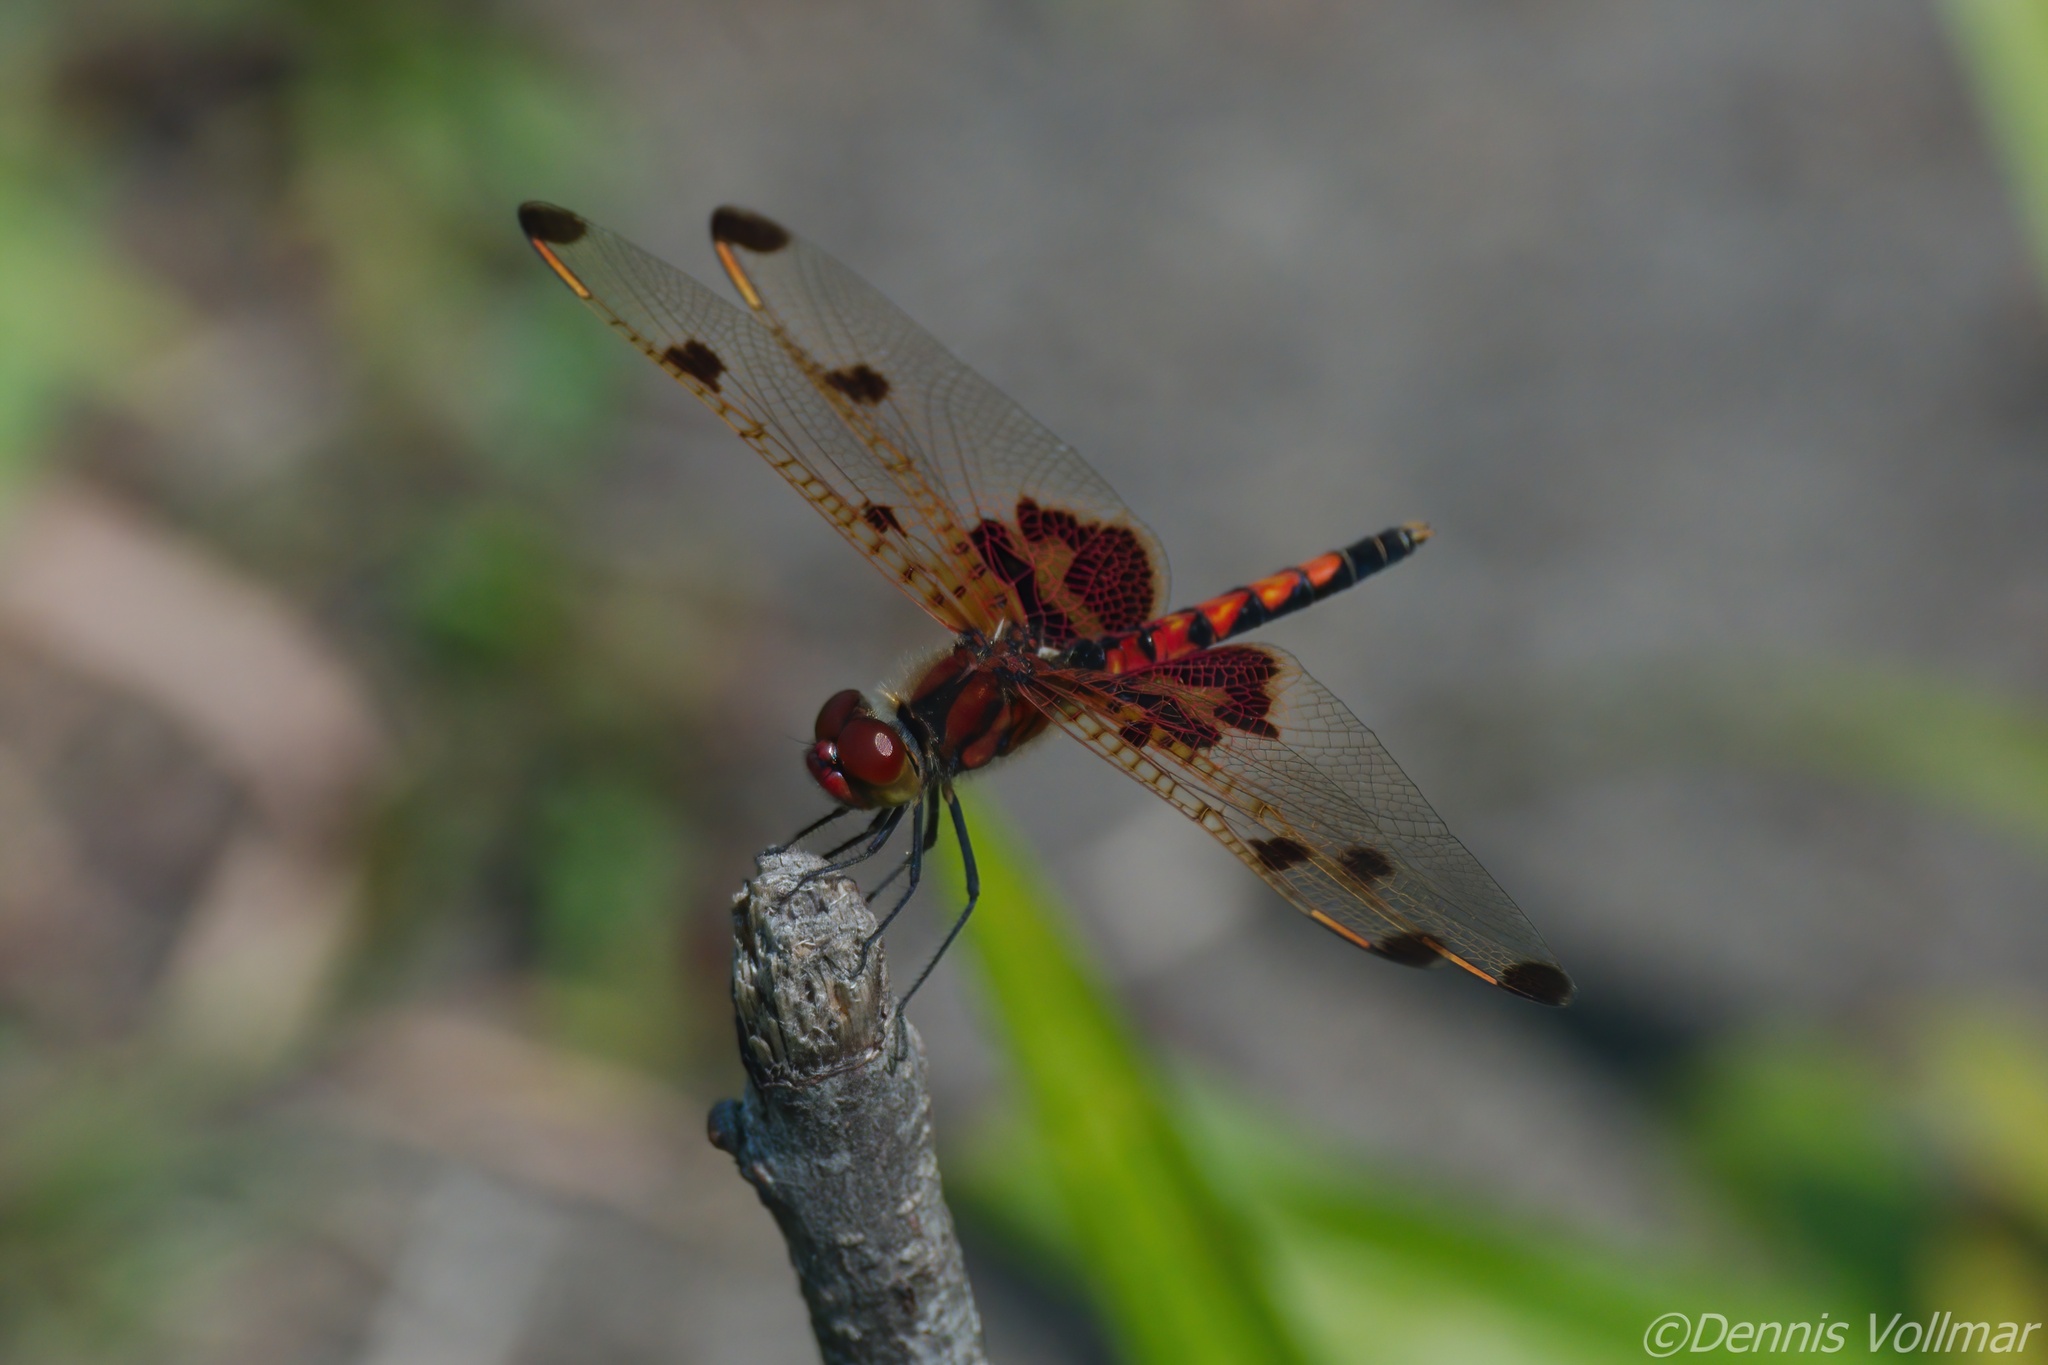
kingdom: Animalia
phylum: Arthropoda
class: Insecta
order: Odonata
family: Libellulidae
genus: Celithemis
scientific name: Celithemis elisa
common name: Calico pennant
